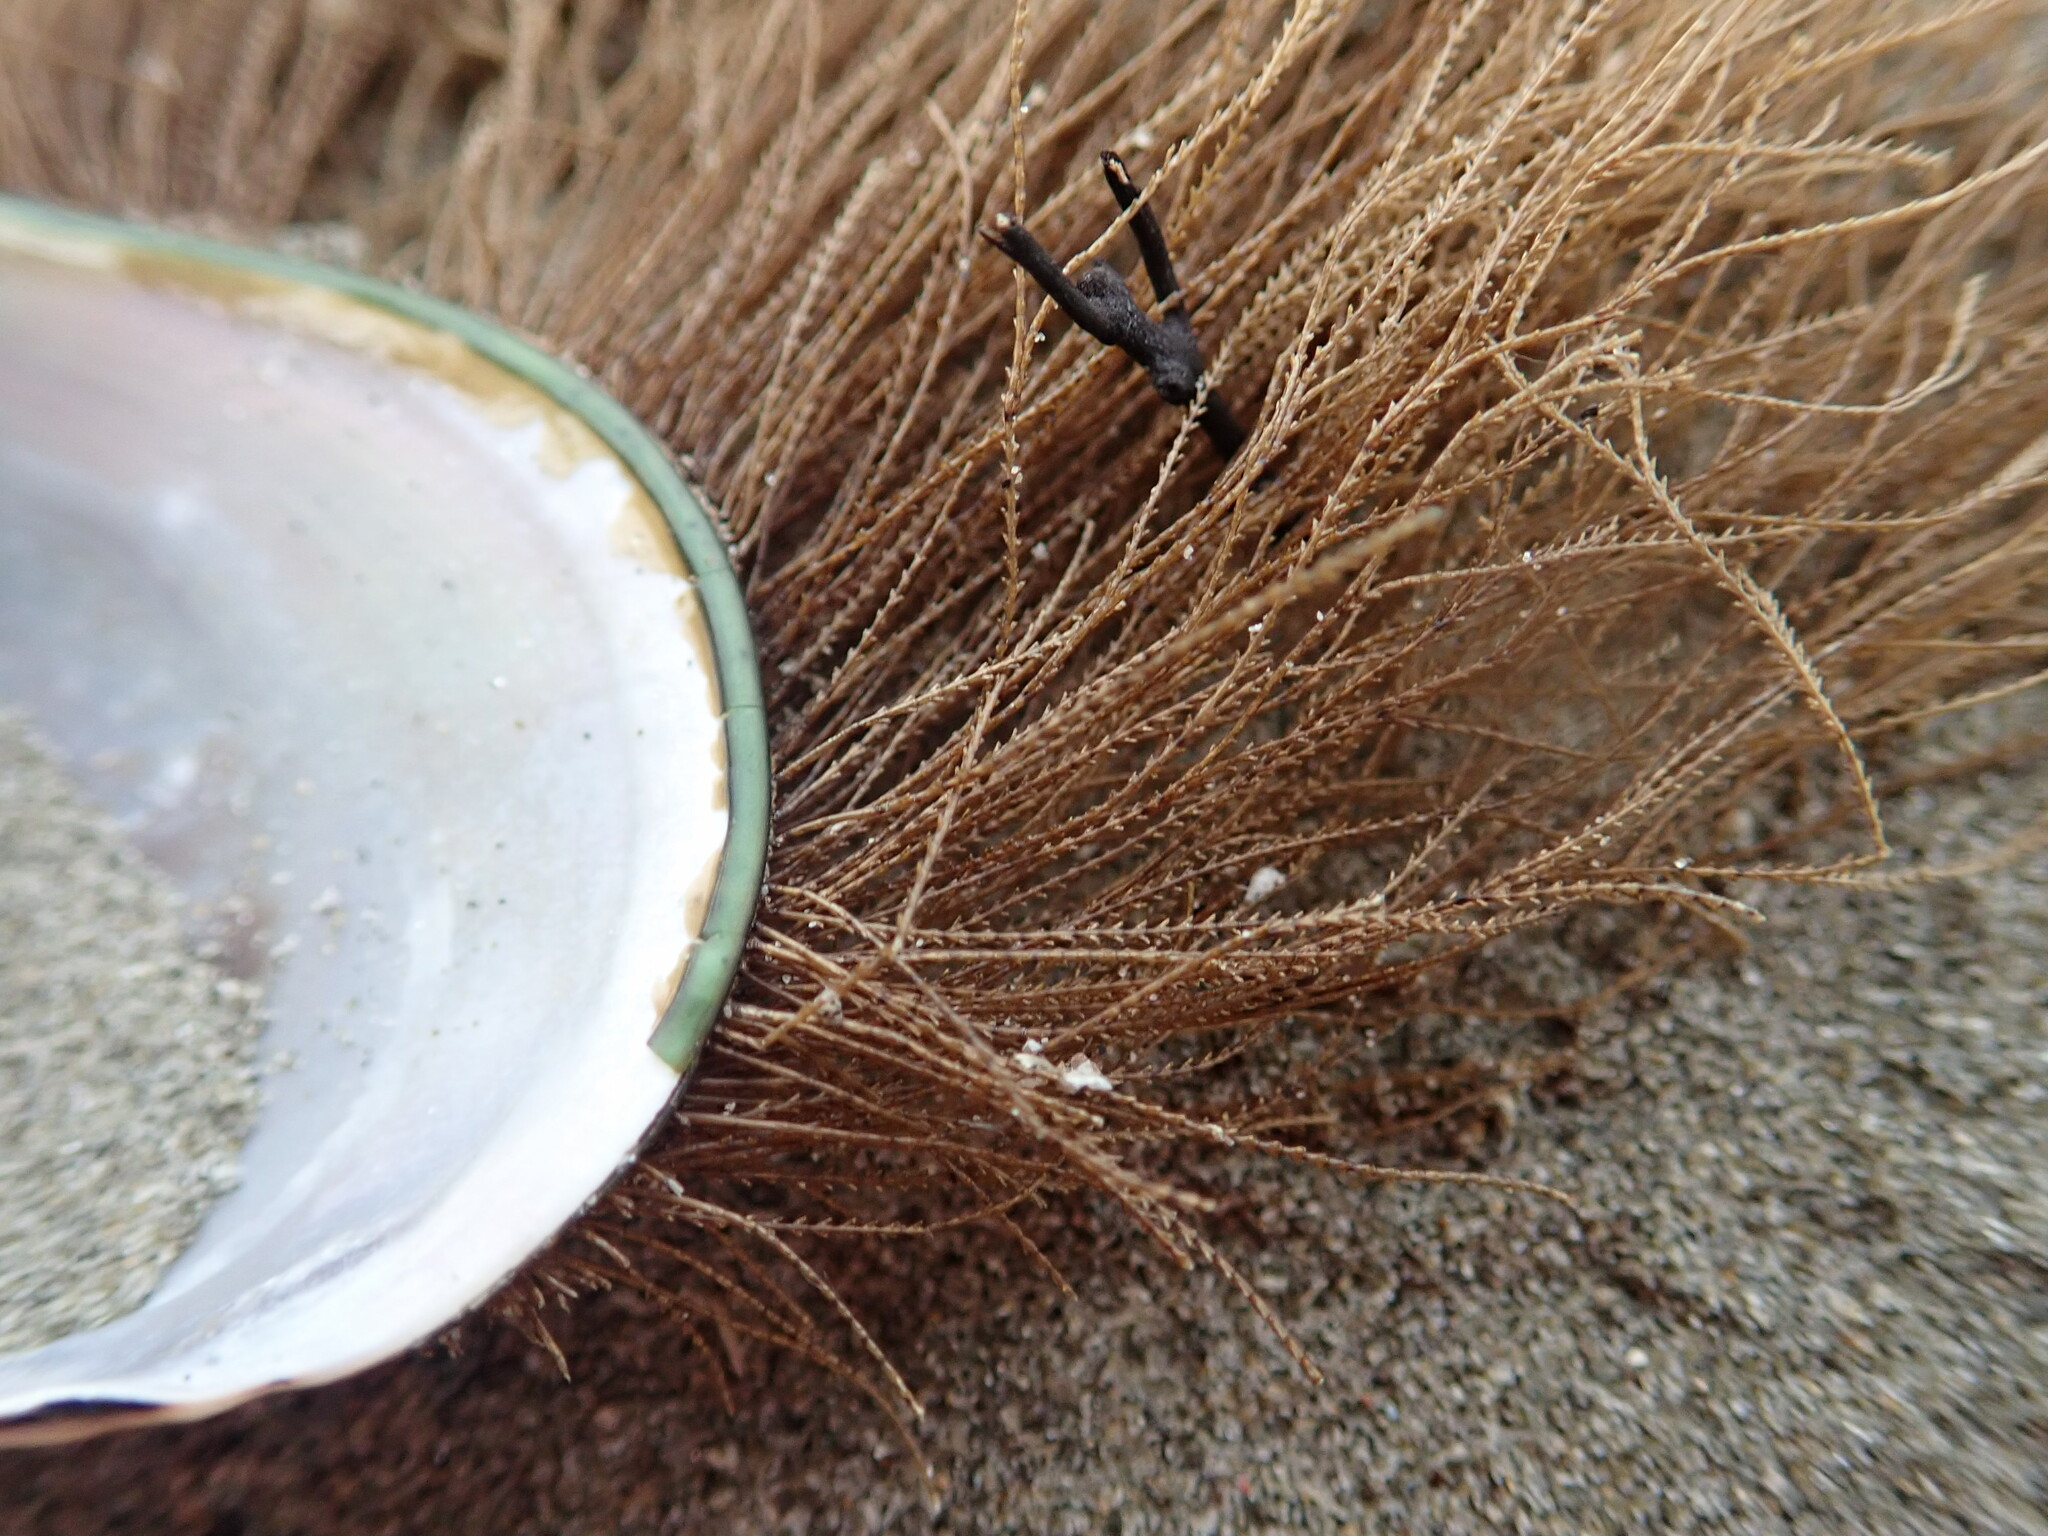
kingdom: Animalia
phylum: Cnidaria
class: Hydrozoa
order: Leptothecata
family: Sertulariidae
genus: Amphisbetia
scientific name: Amphisbetia bispinosa
